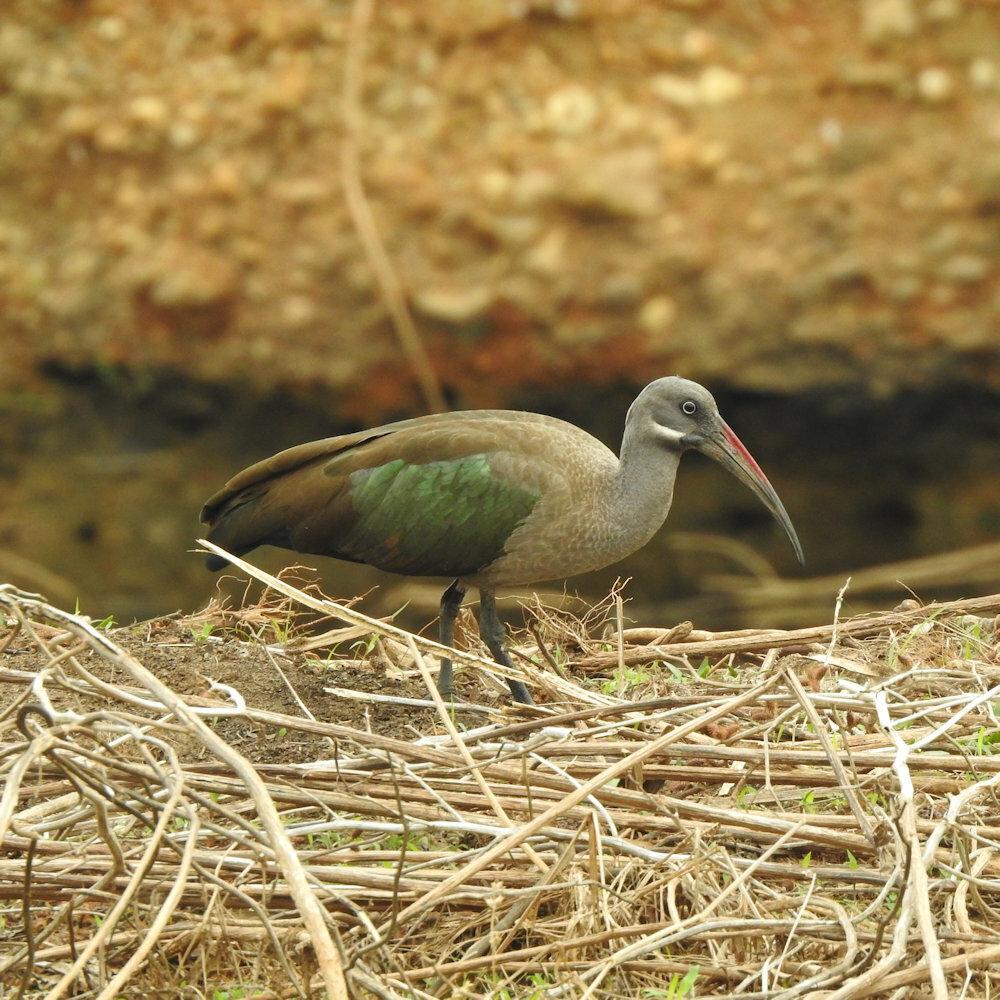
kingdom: Animalia
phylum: Chordata
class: Aves
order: Pelecaniformes
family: Threskiornithidae
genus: Bostrychia
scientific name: Bostrychia hagedash
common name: Hadada ibis
